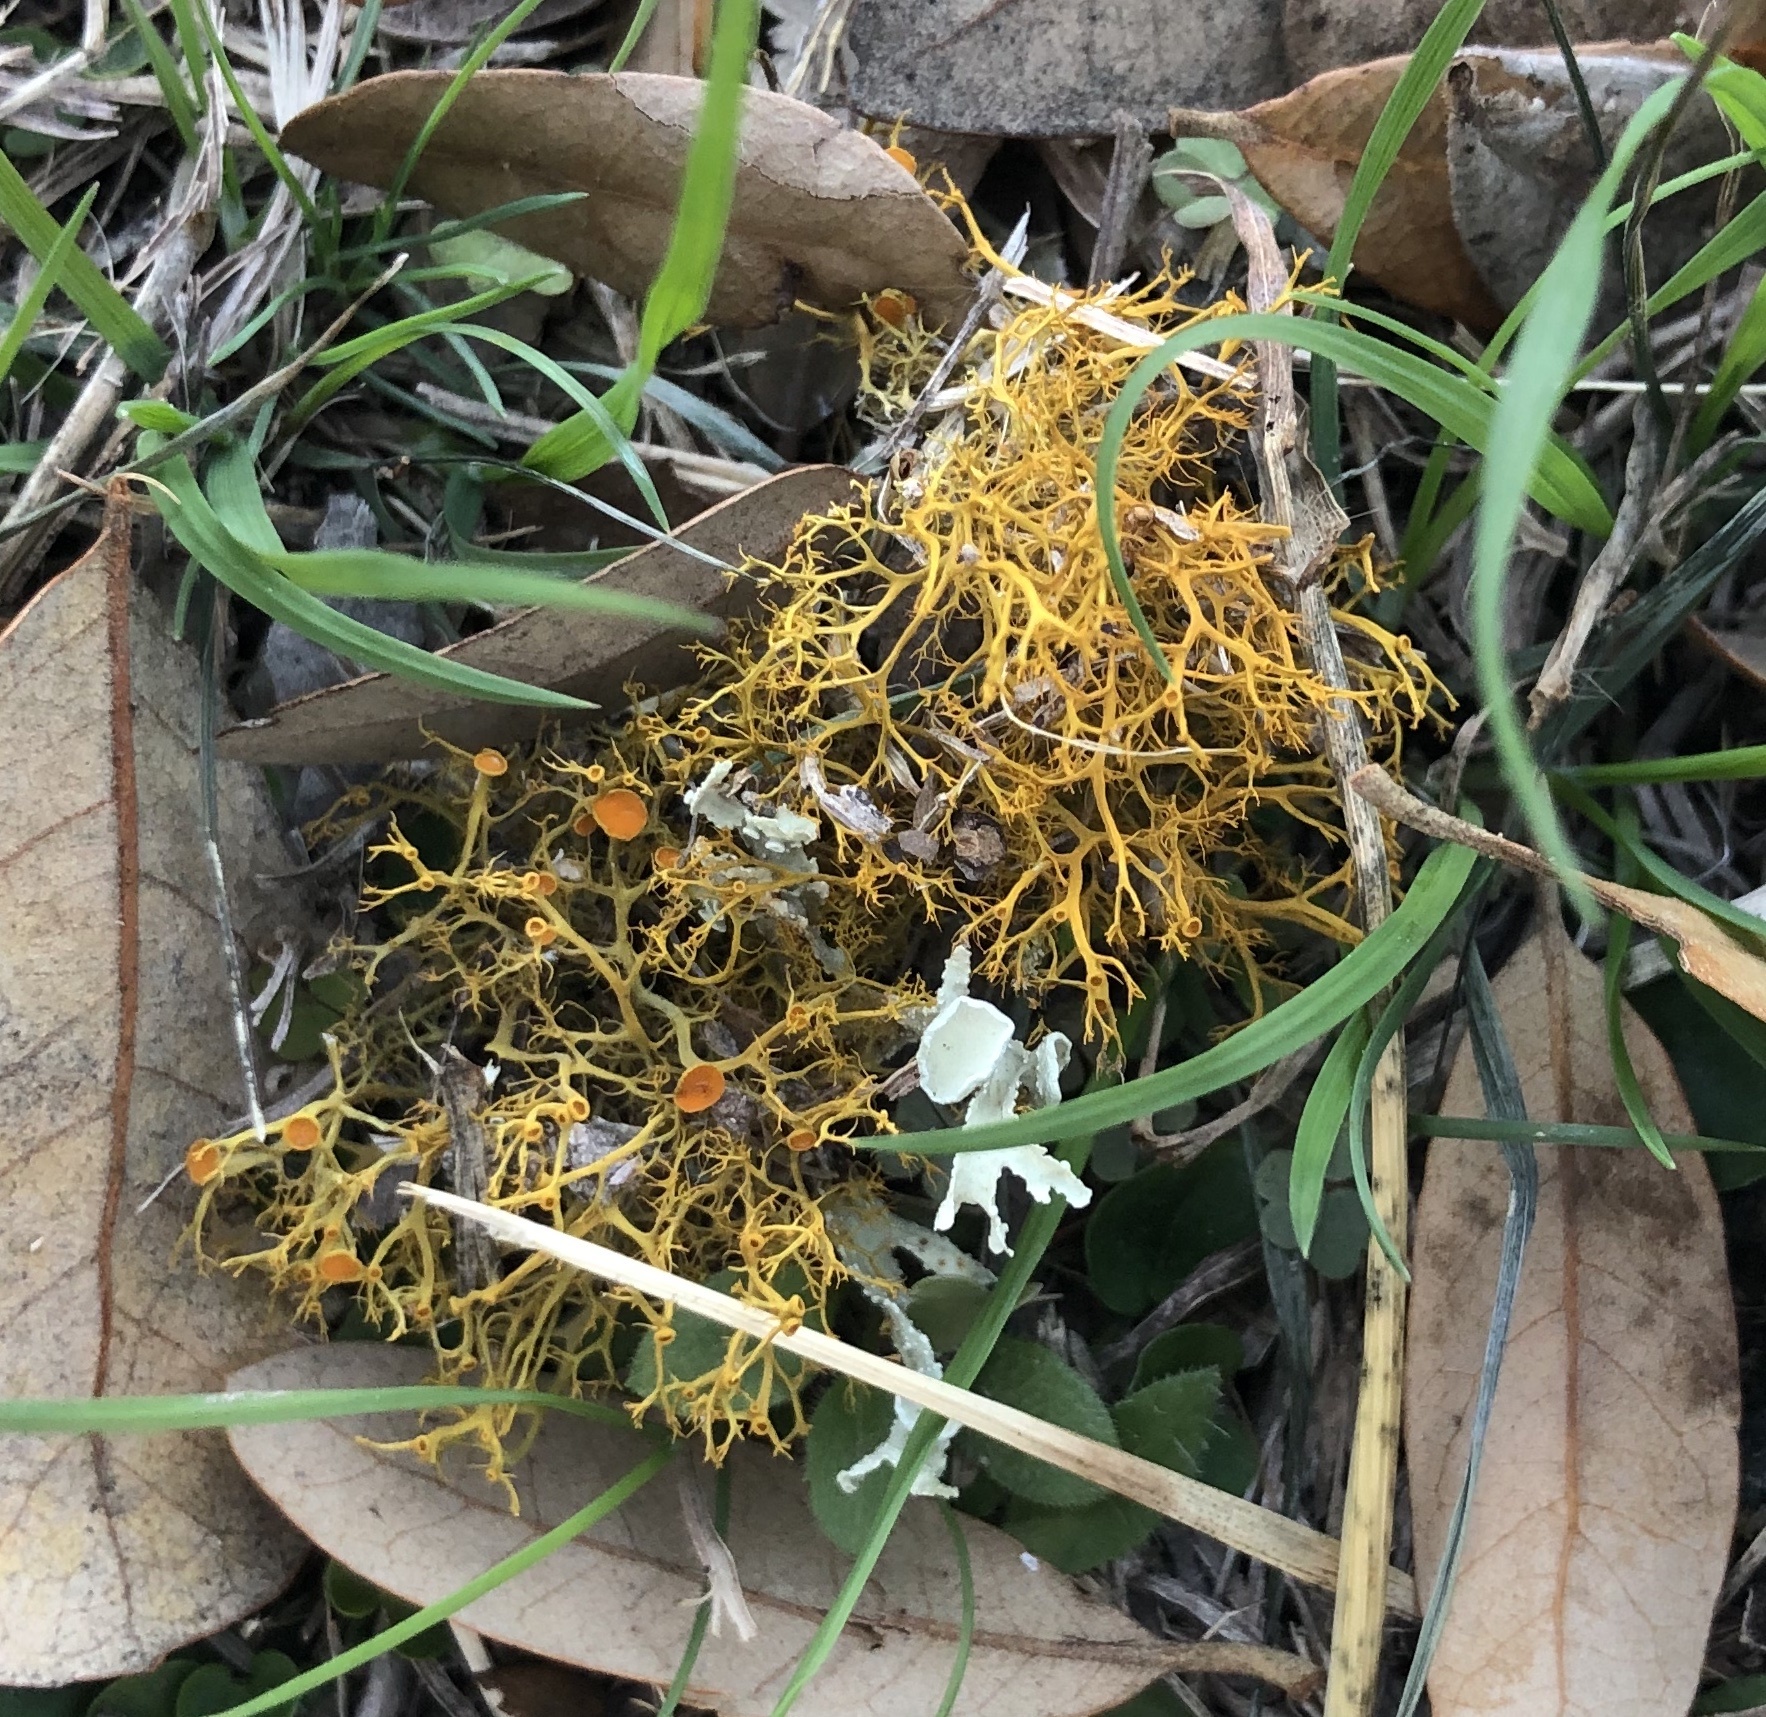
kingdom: Fungi
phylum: Ascomycota
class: Lecanoromycetes
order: Teloschistales
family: Teloschistaceae
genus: Teloschistes
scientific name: Teloschistes exilis
